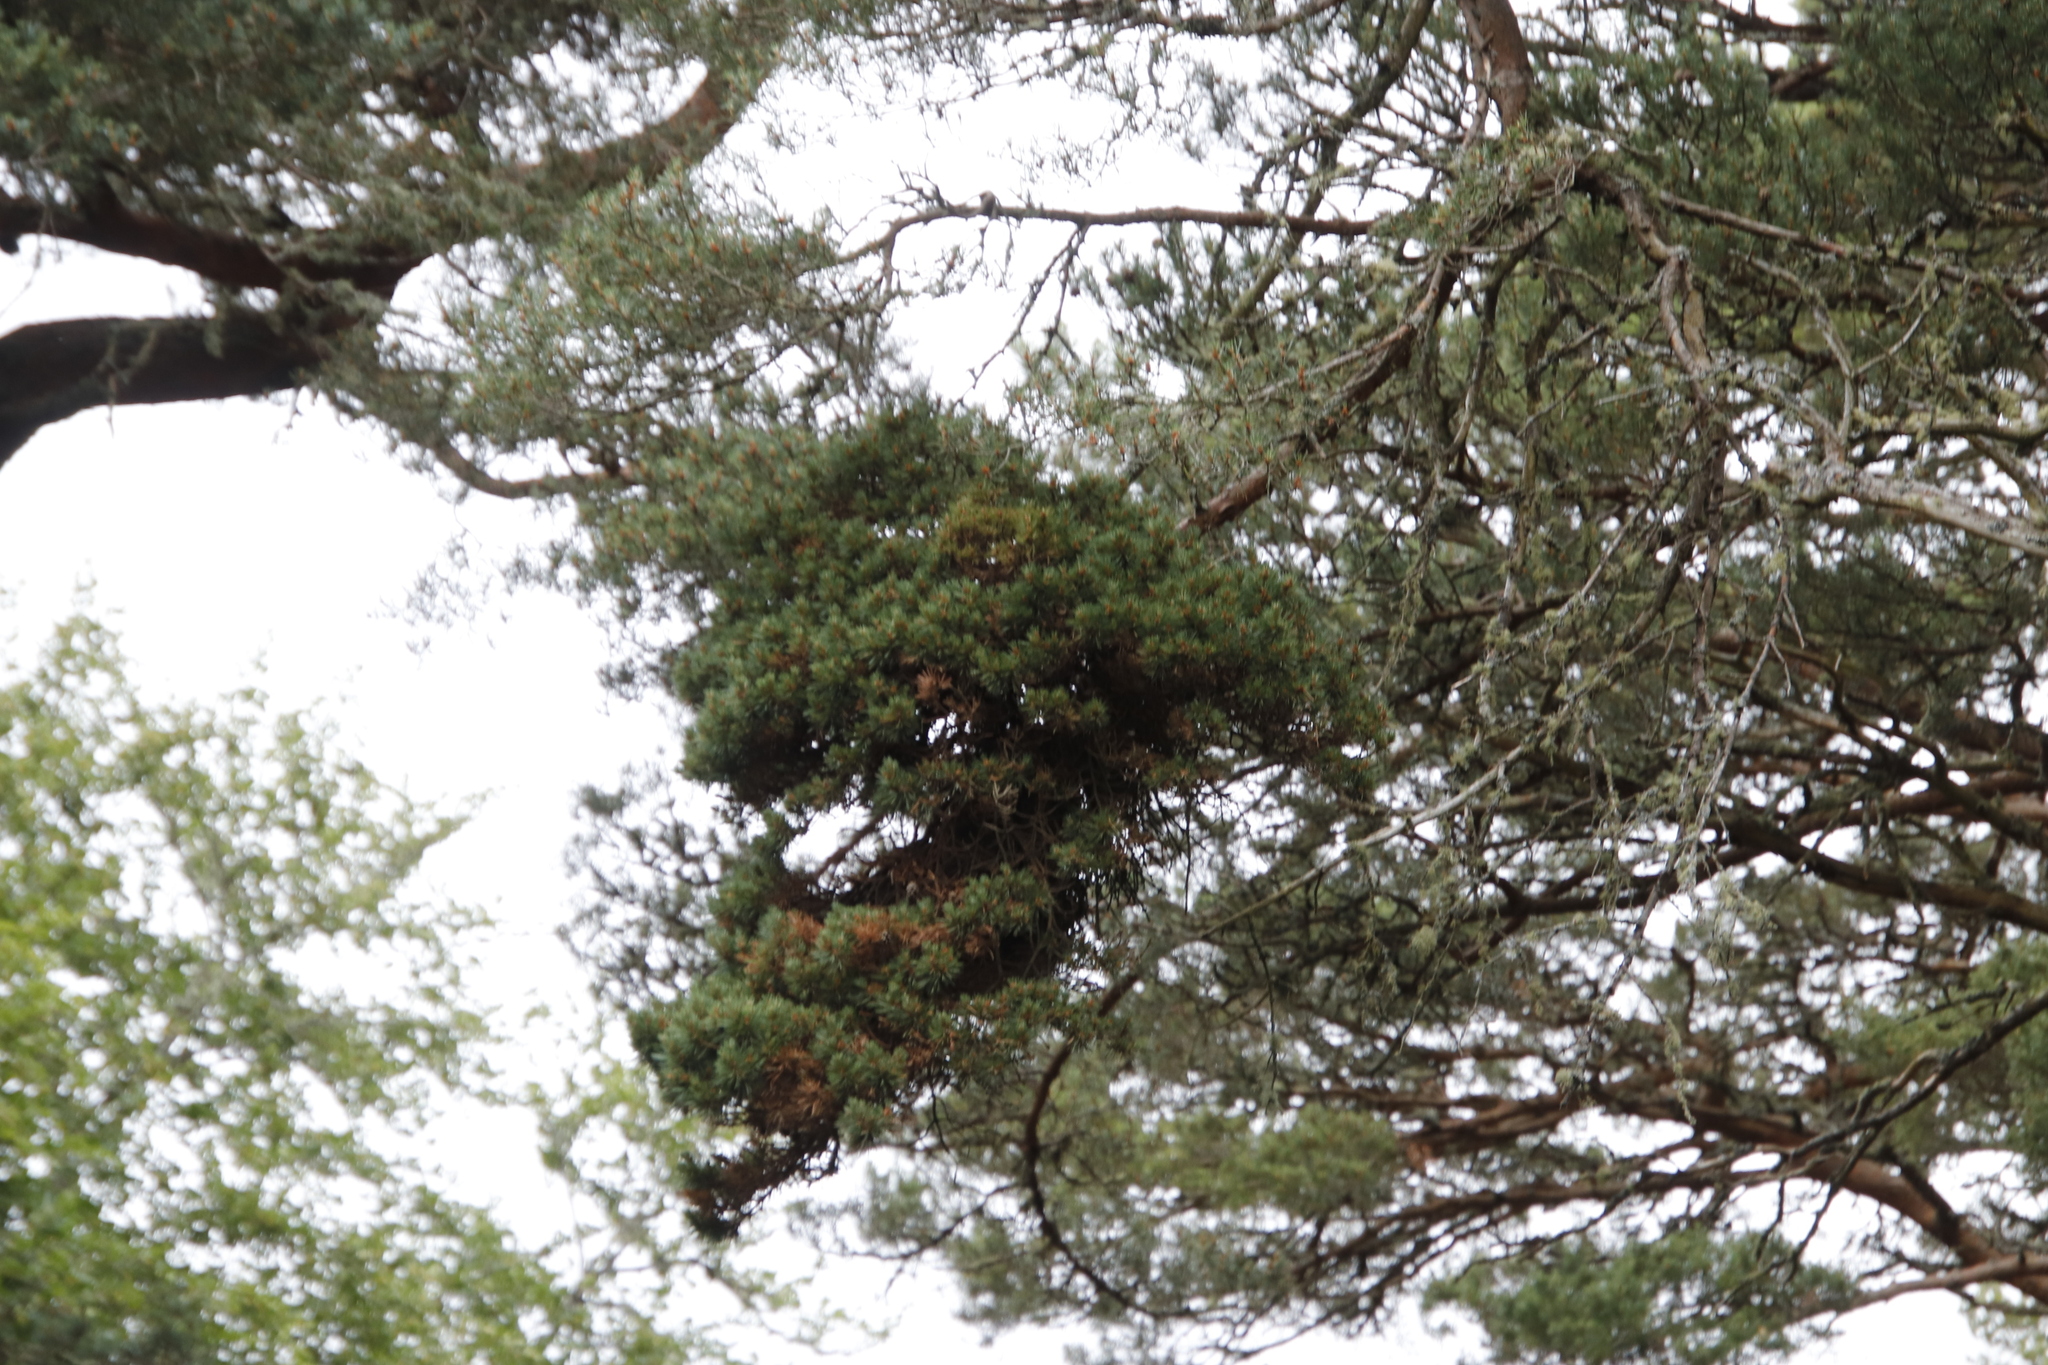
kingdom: Bacteria
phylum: Firmicutes
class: Bacilli
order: Acholeplasmatales
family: Acholeplasmataceae
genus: Phytoplasma
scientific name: Phytoplasma pini
